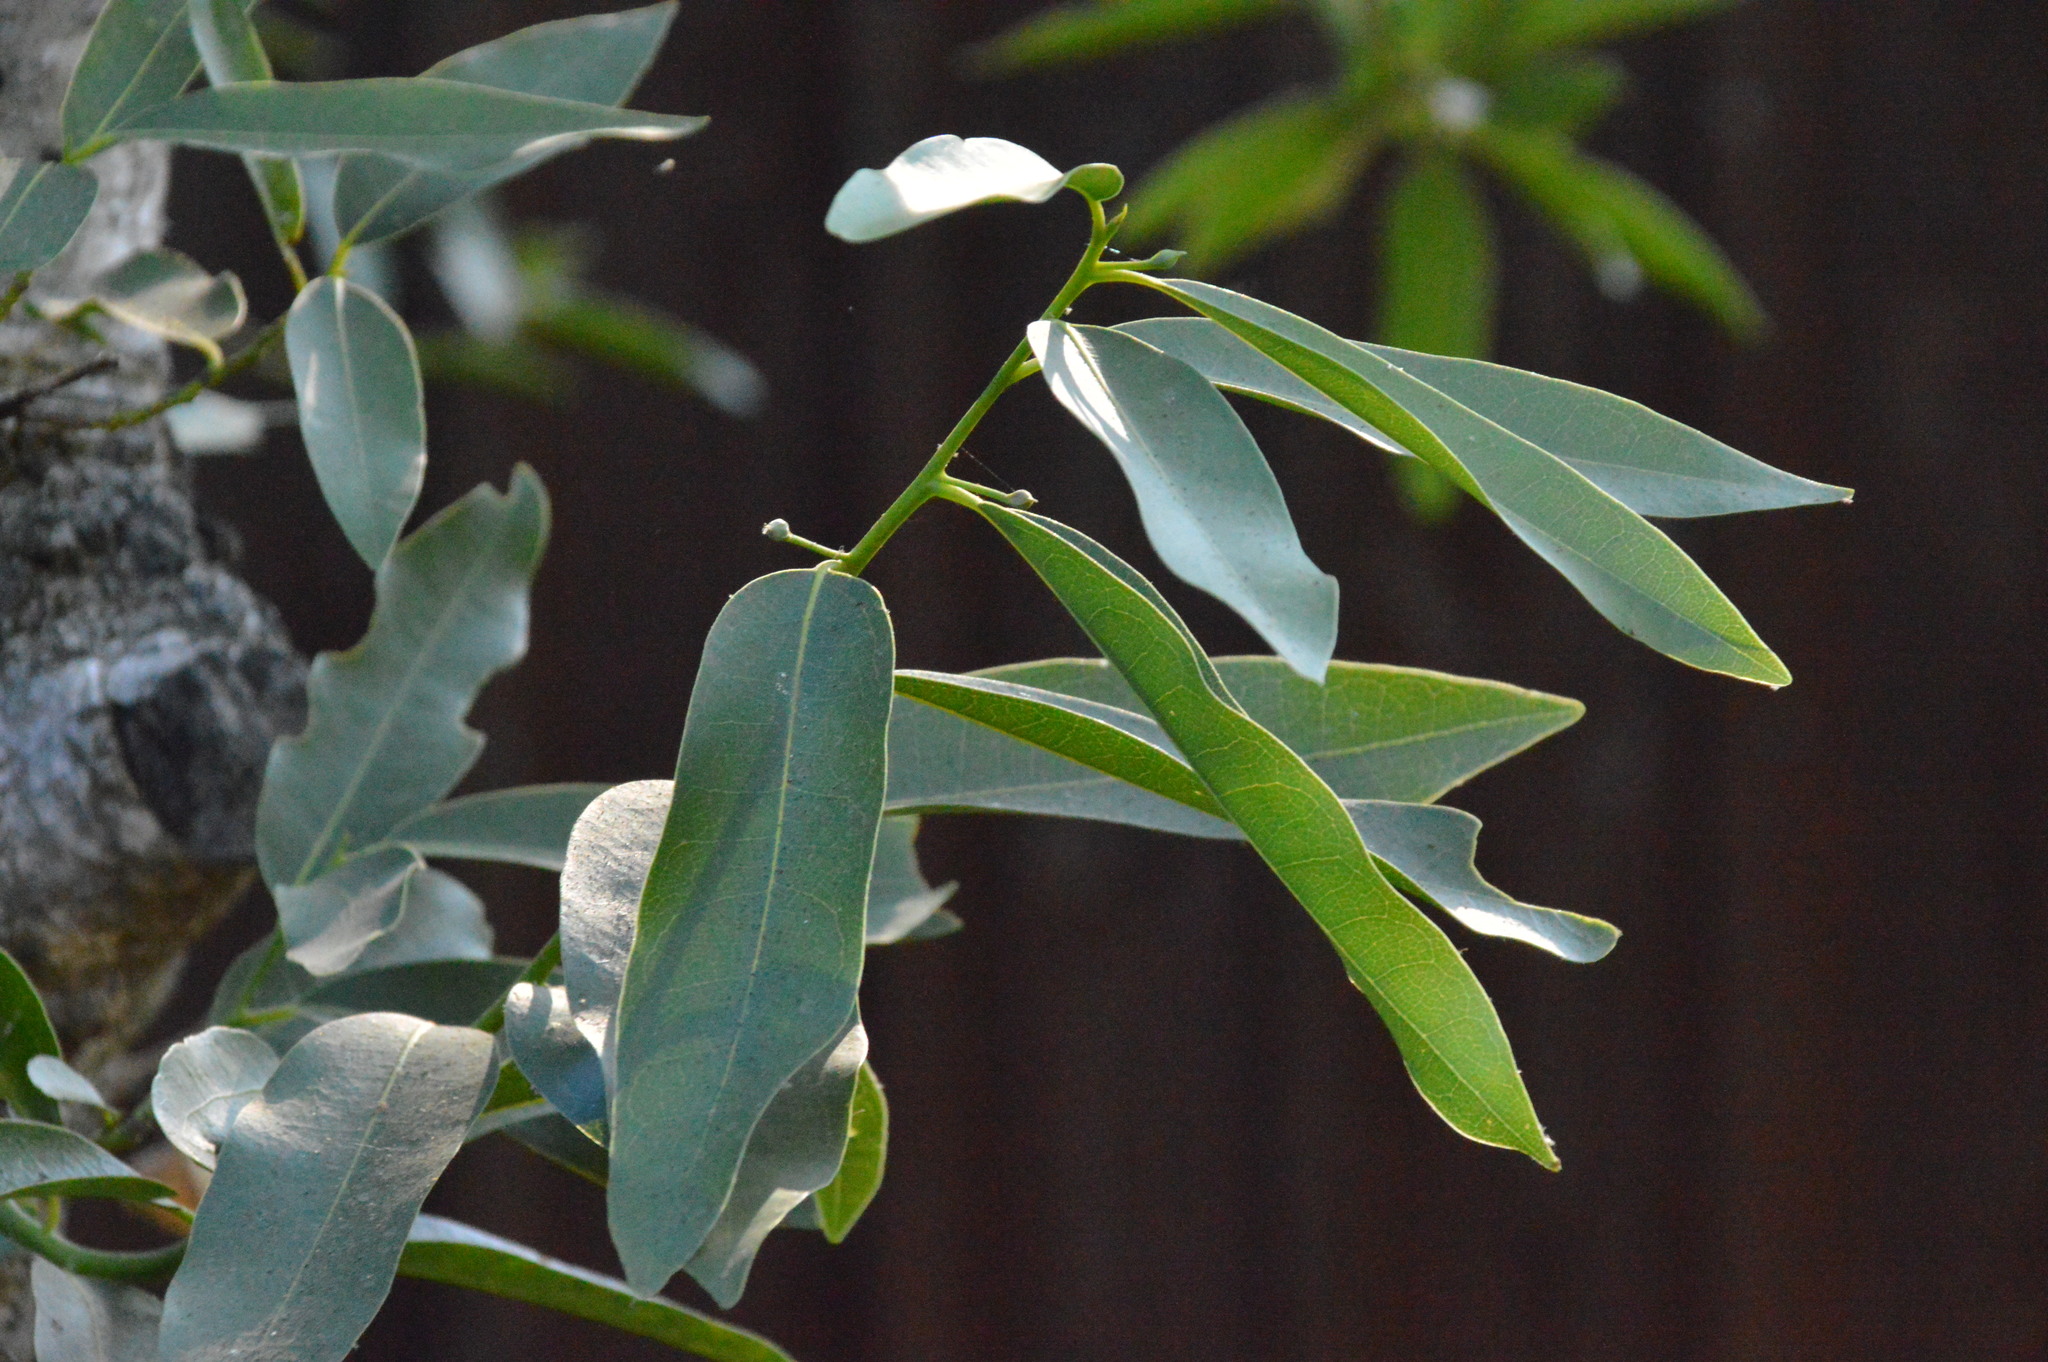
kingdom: Plantae
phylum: Tracheophyta
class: Magnoliopsida
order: Laurales
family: Lauraceae
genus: Umbellularia
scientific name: Umbellularia californica
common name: California bay
